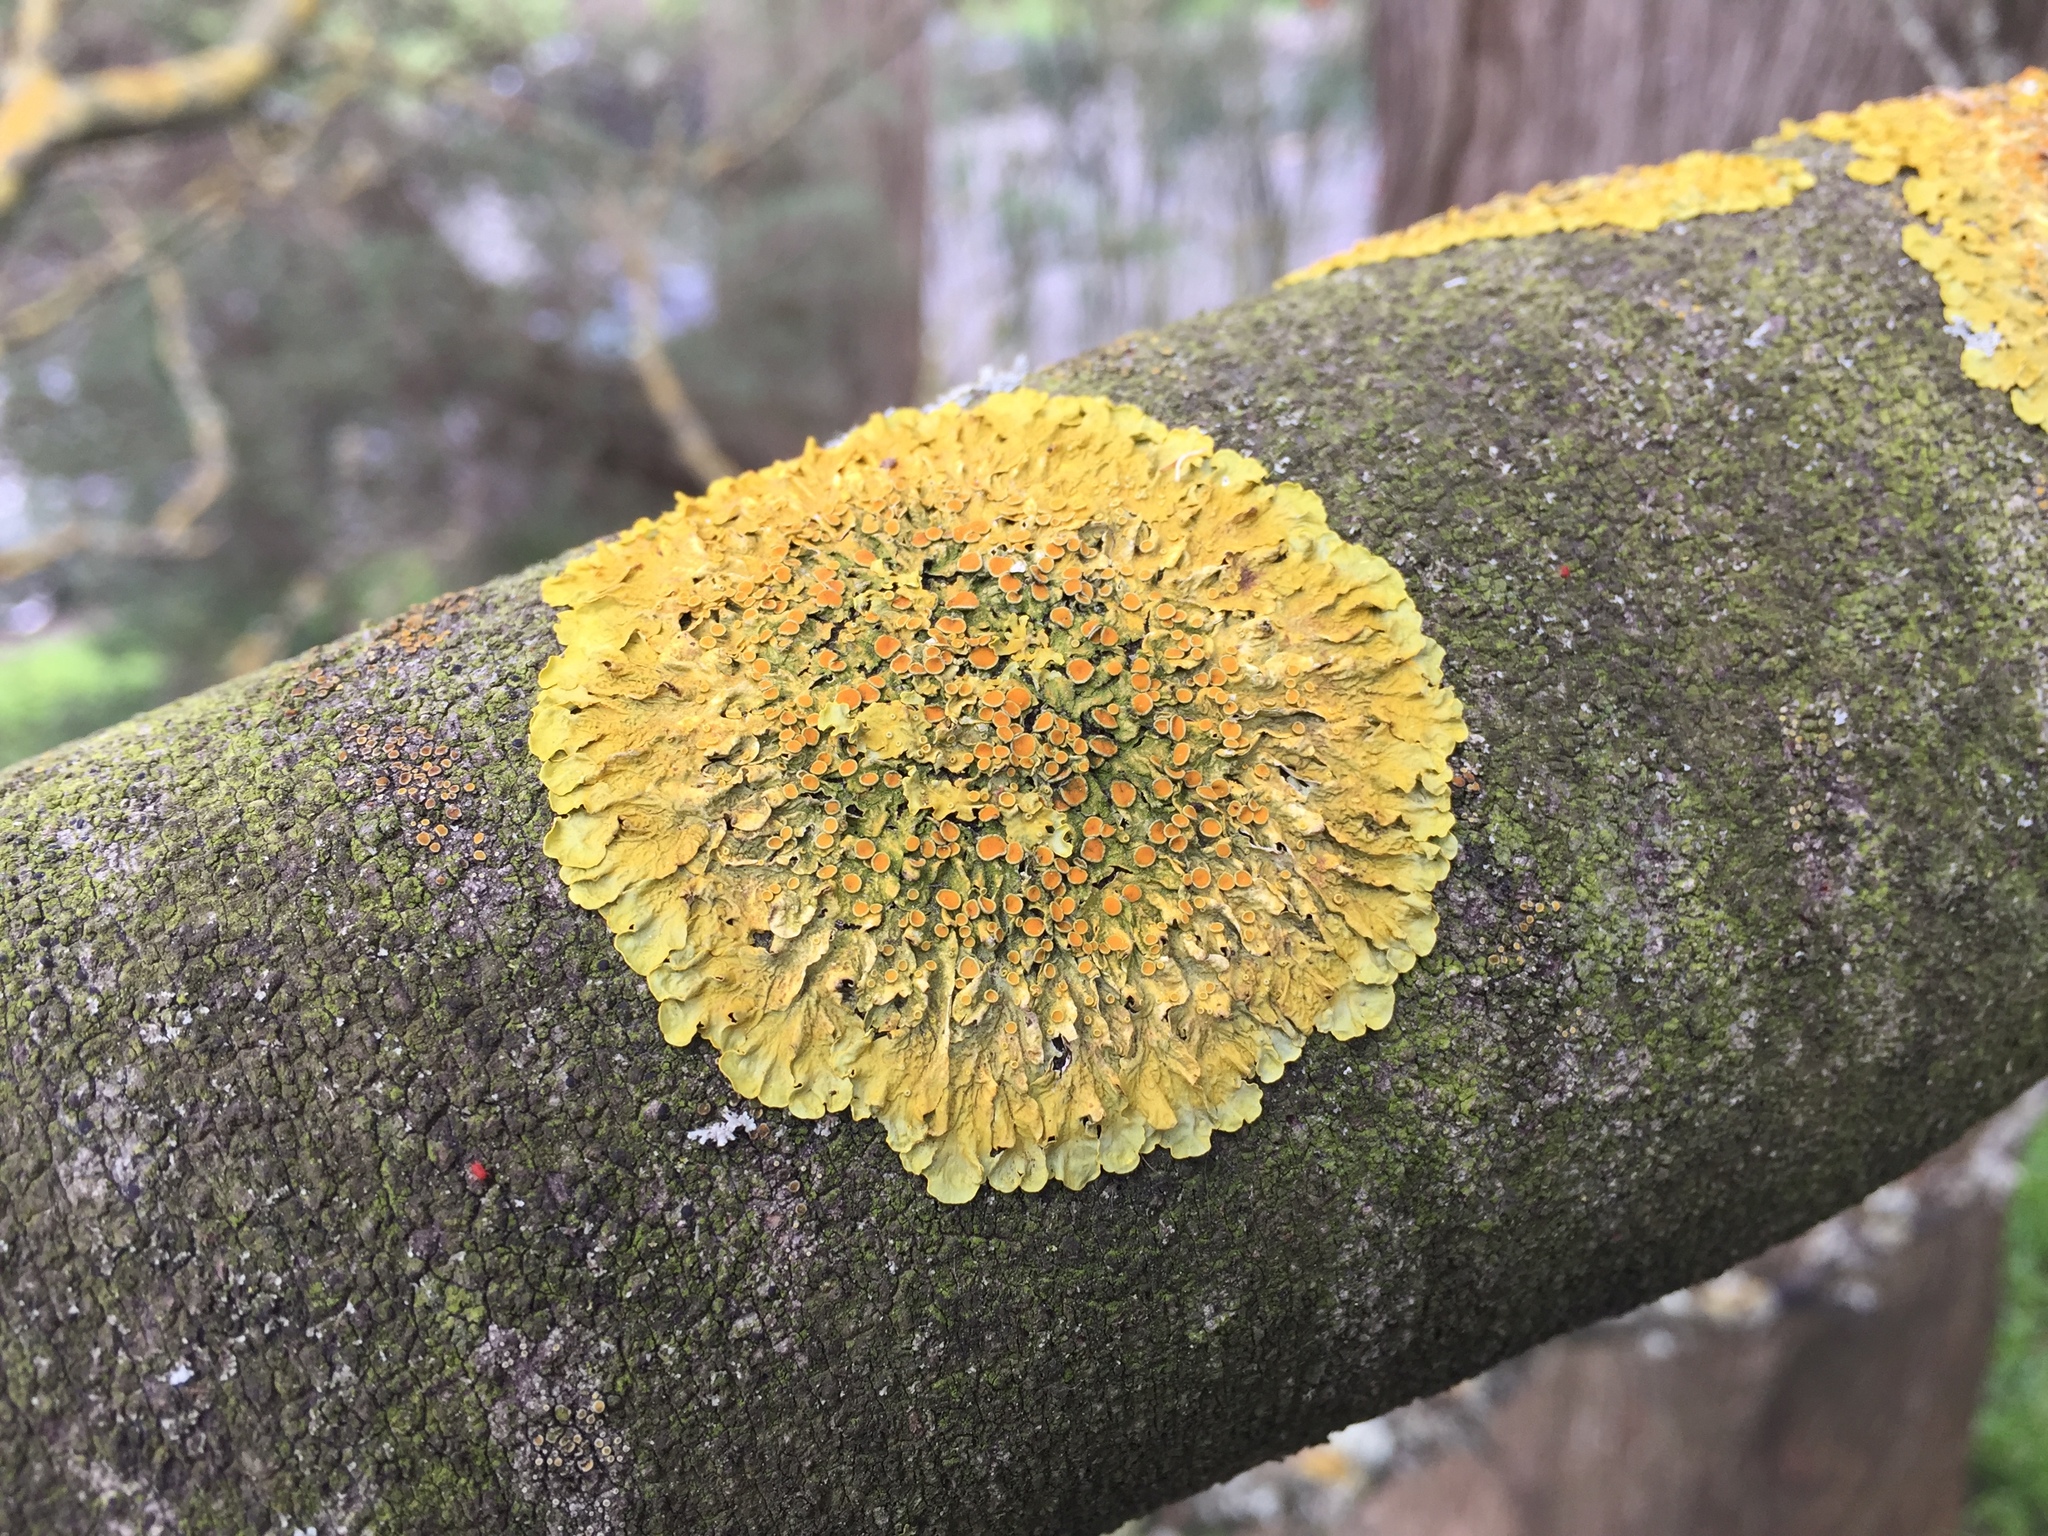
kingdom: Fungi
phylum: Ascomycota
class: Lecanoromycetes
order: Teloschistales
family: Teloschistaceae
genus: Xanthoria
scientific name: Xanthoria parietina
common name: Common orange lichen
